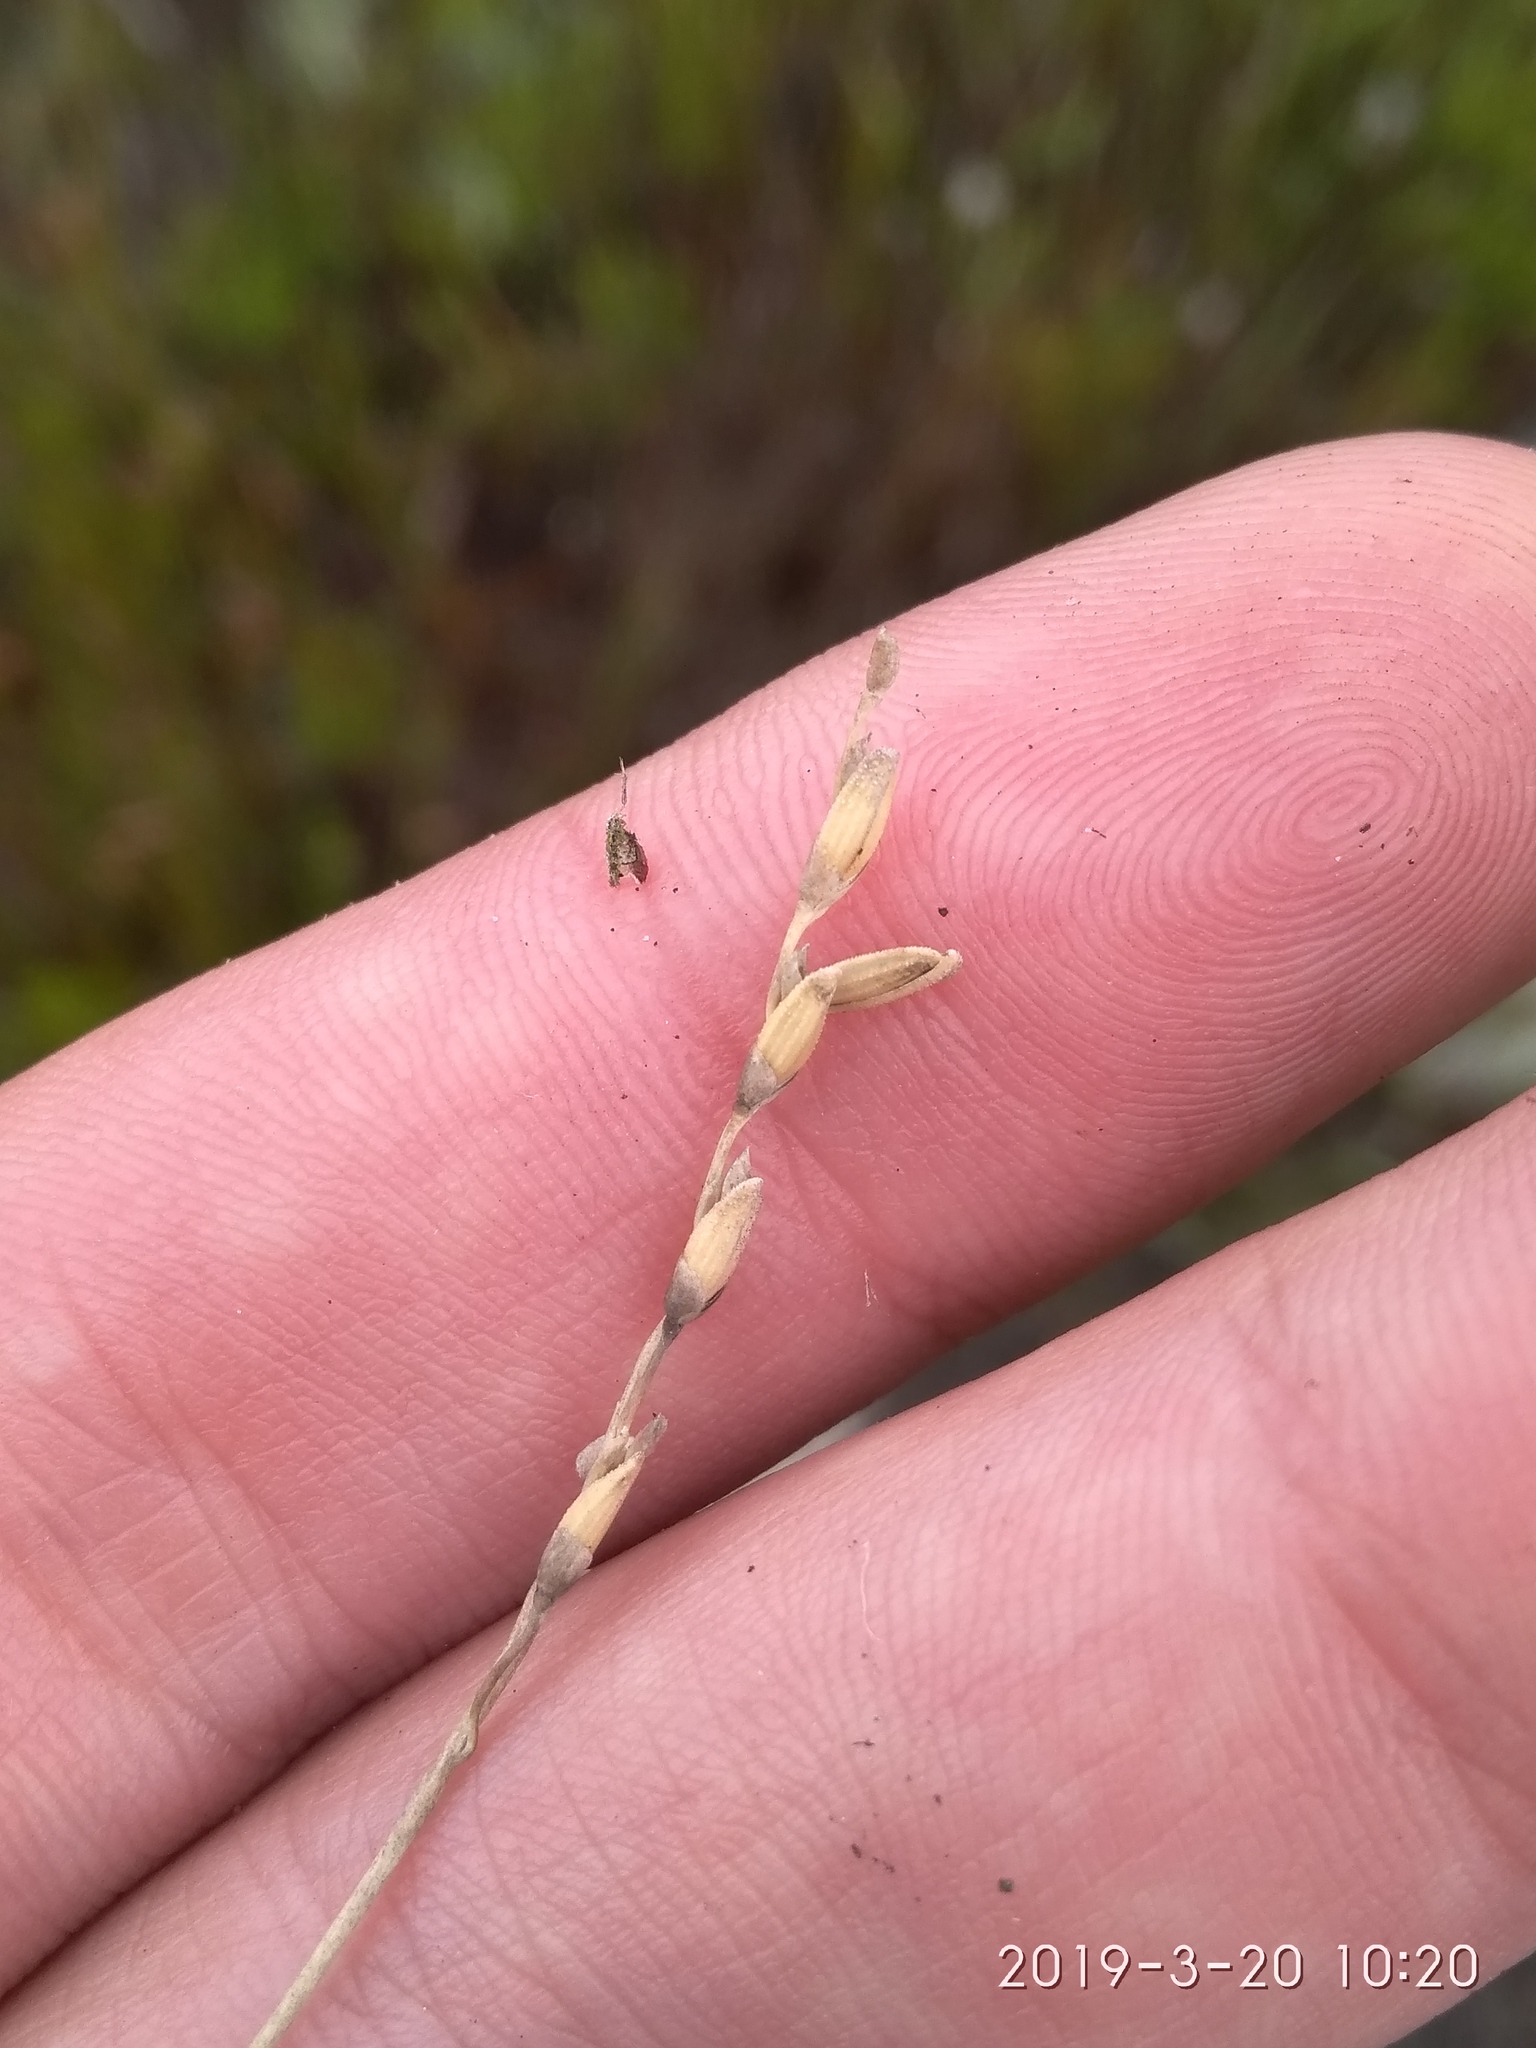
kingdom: Plantae
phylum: Tracheophyta
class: Liliopsida
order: Poales
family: Poaceae
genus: Ehrharta
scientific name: Ehrharta rupestris
